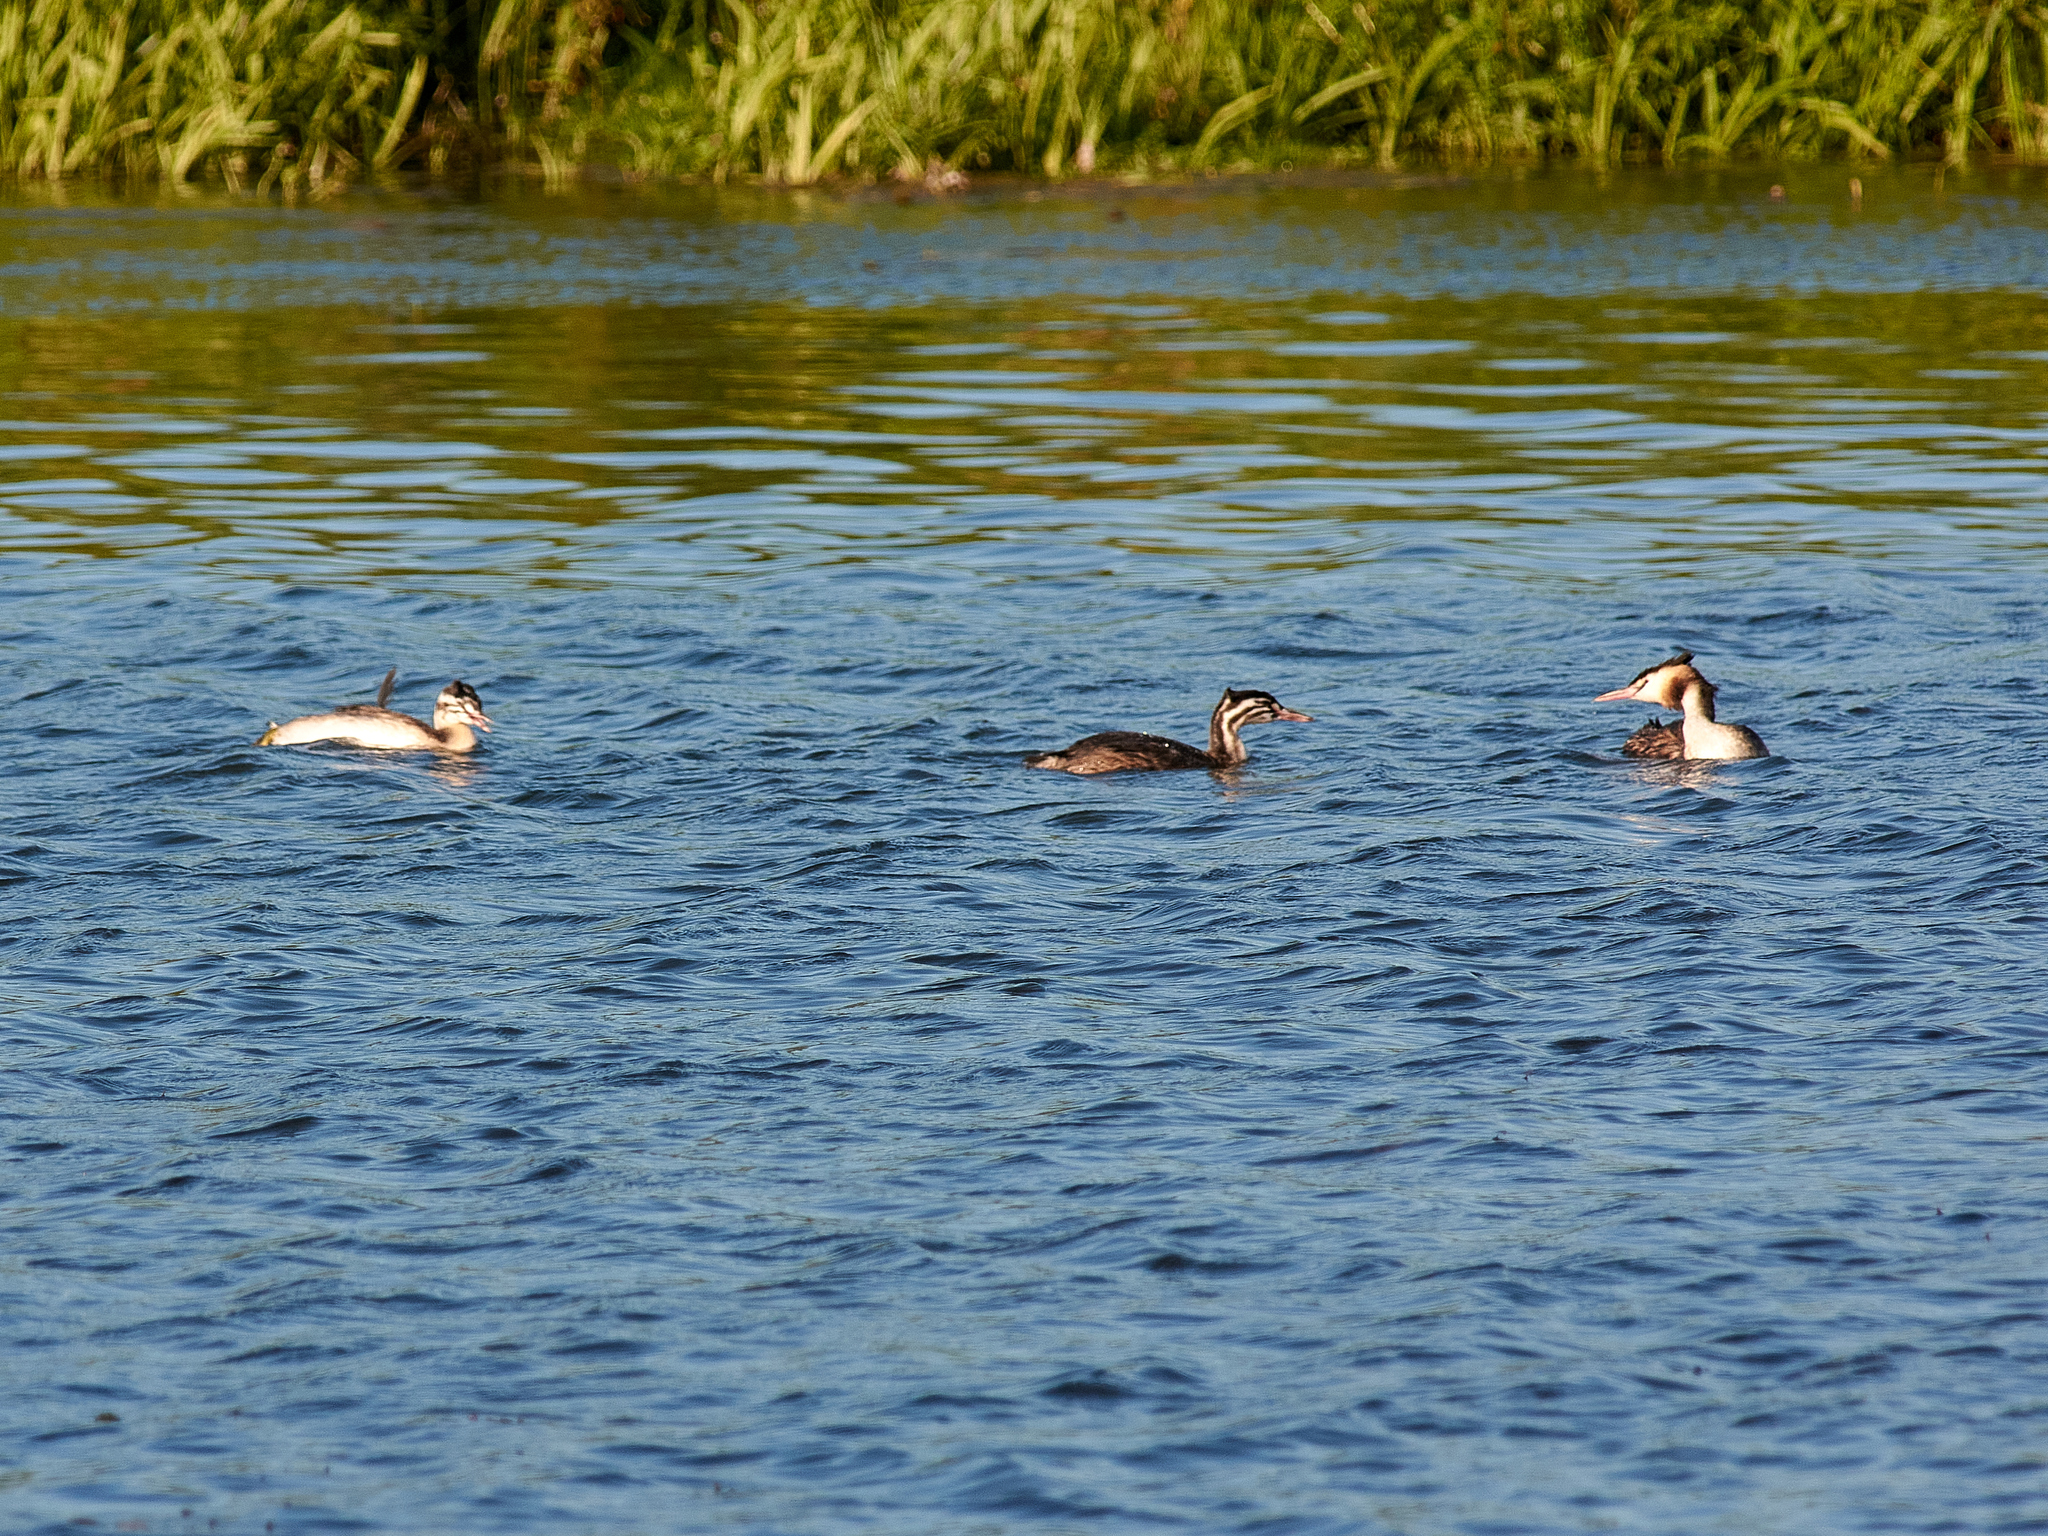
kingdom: Animalia
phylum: Chordata
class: Aves
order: Podicipediformes
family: Podicipedidae
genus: Podiceps
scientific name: Podiceps cristatus
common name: Great crested grebe
